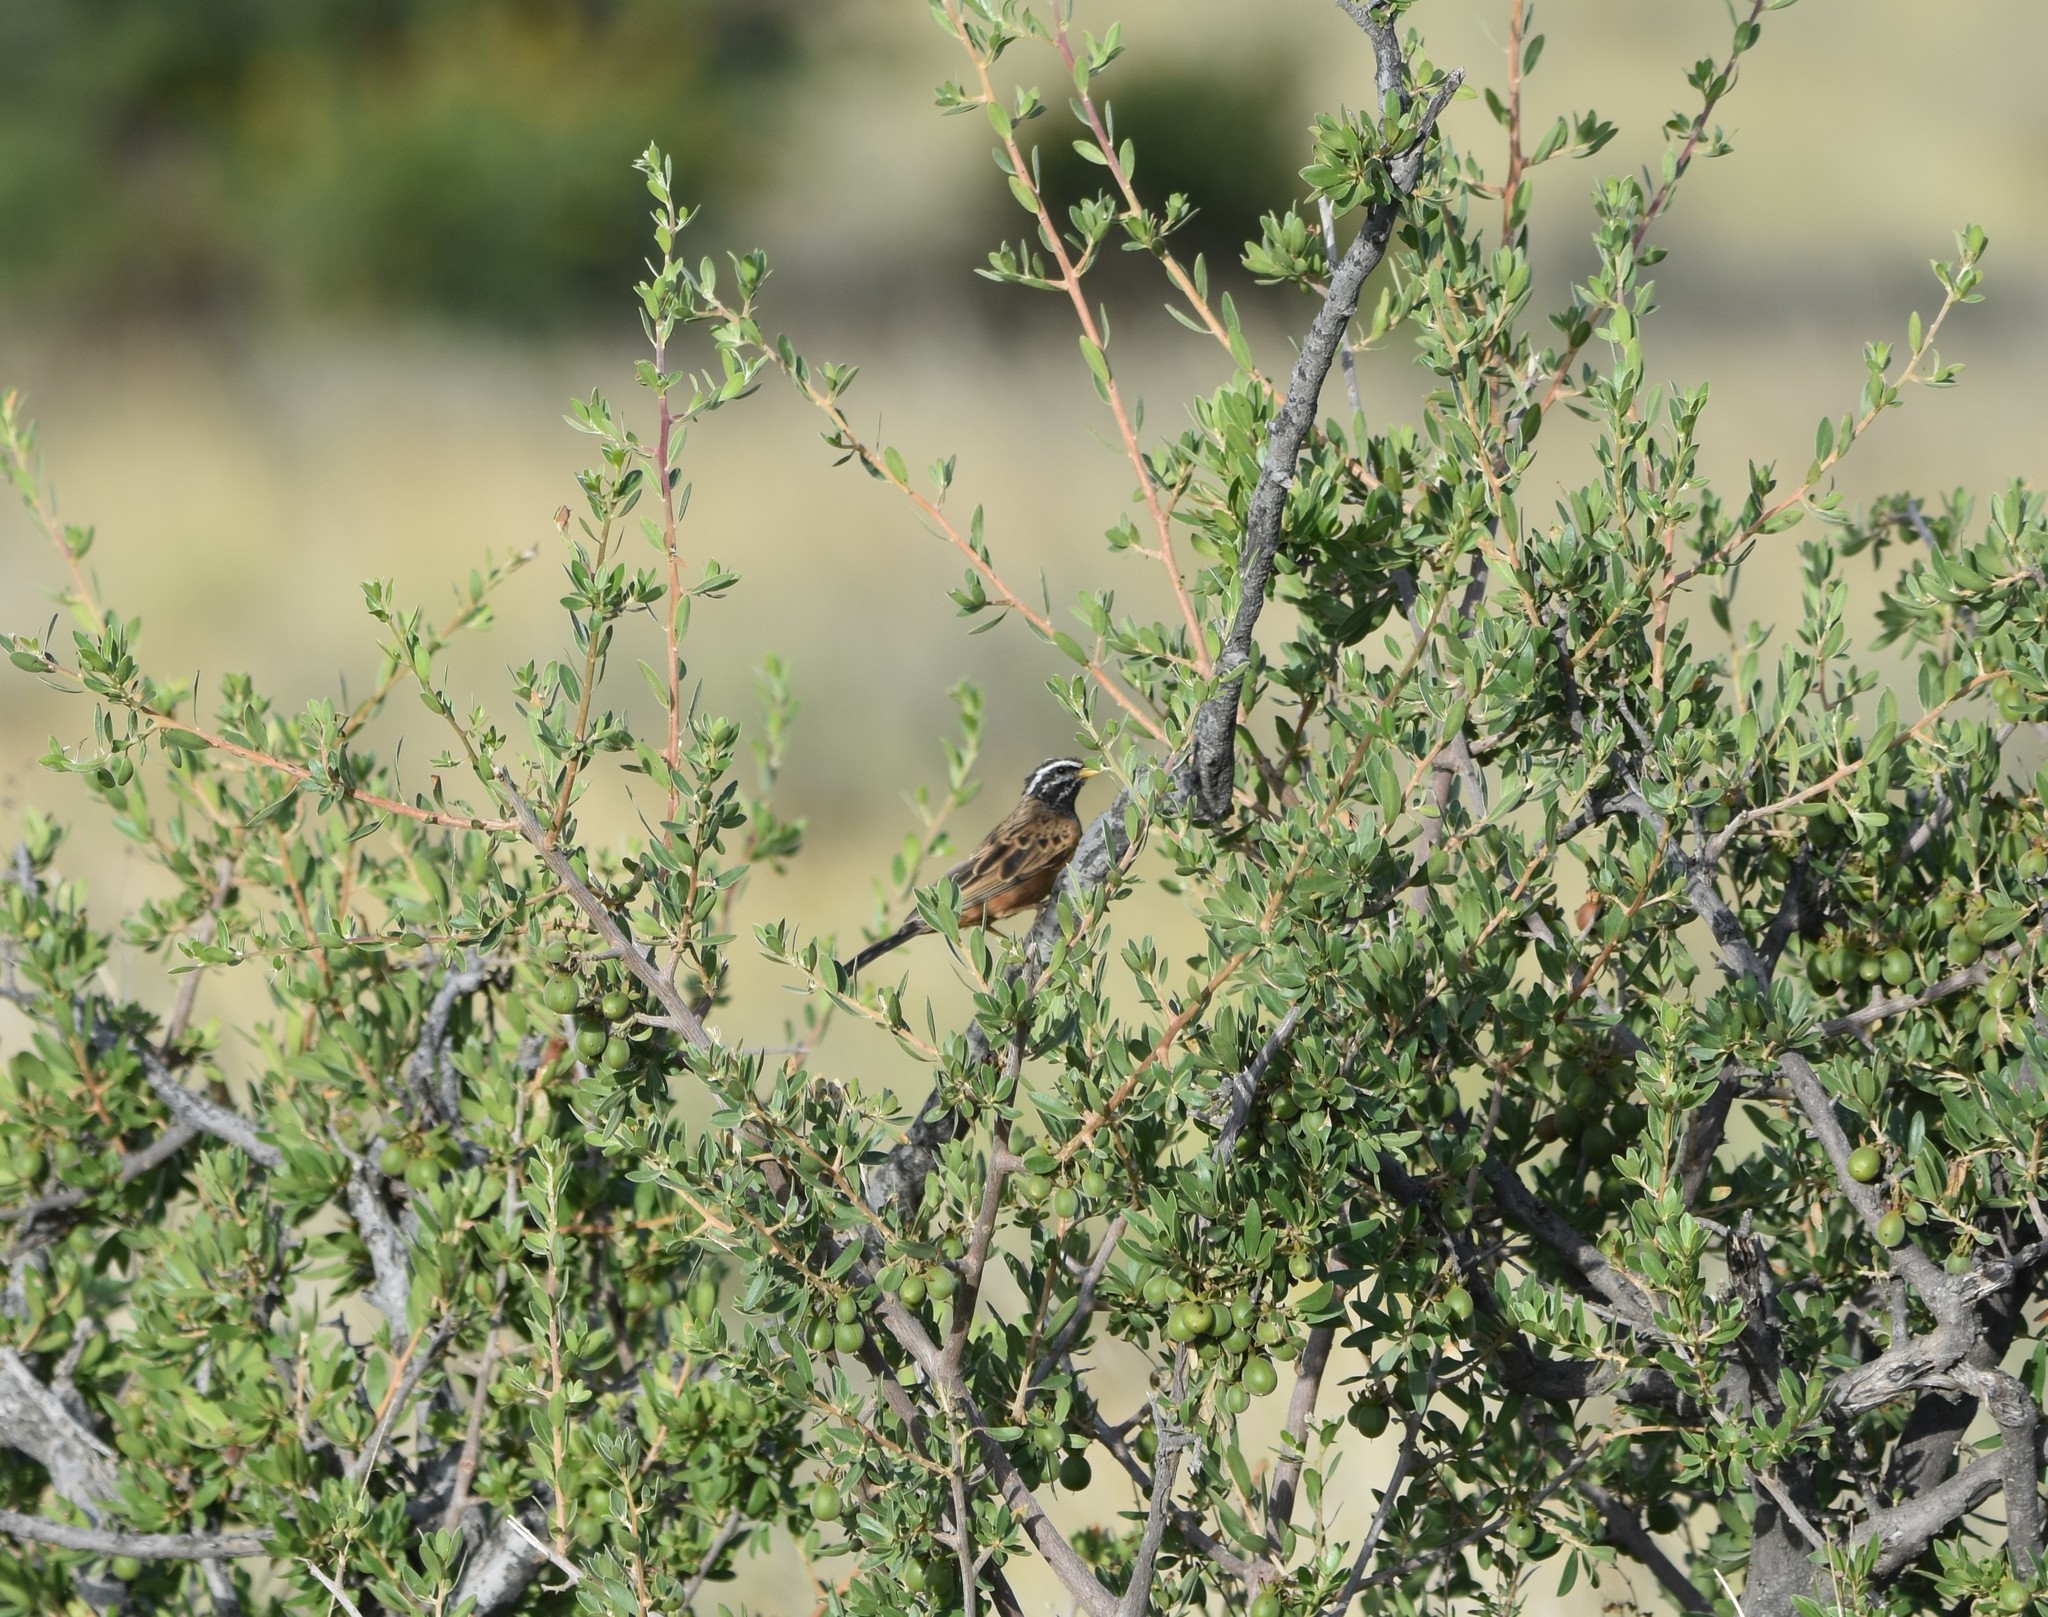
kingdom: Animalia
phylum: Chordata
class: Aves
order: Passeriformes
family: Emberizidae
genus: Emberiza
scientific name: Emberiza tahapisi
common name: Cinnamon-breasted bunting
